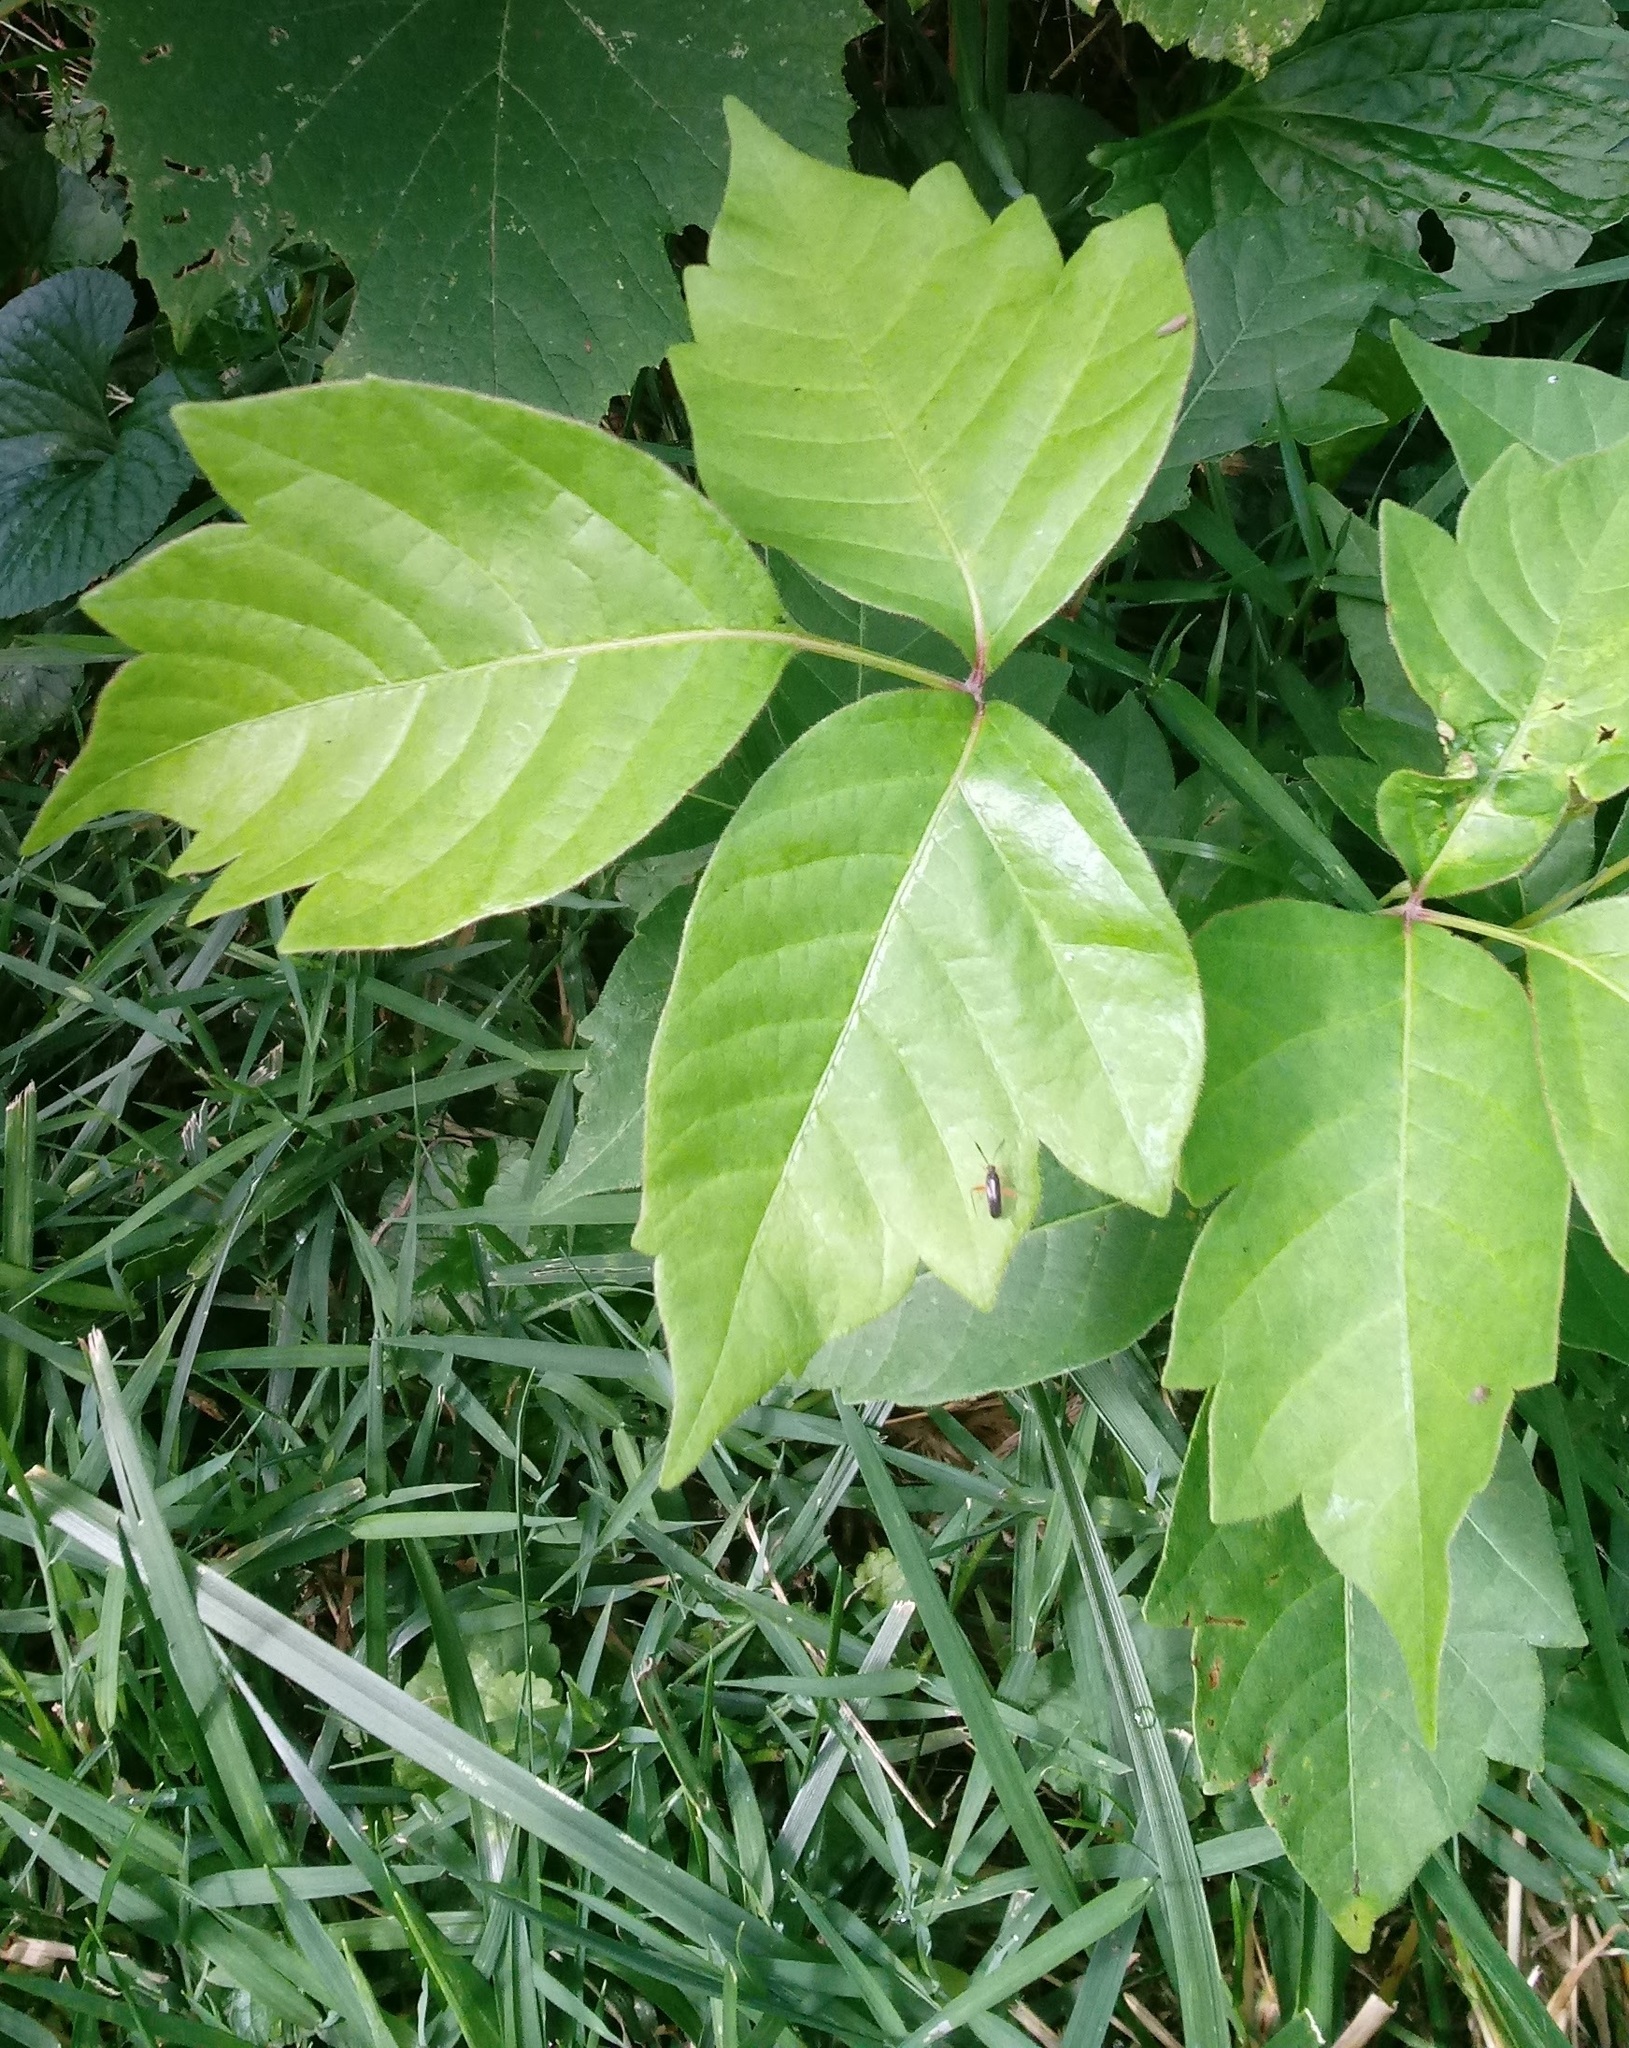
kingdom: Plantae
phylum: Tracheophyta
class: Magnoliopsida
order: Sapindales
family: Anacardiaceae
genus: Toxicodendron
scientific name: Toxicodendron radicans
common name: Poison ivy
